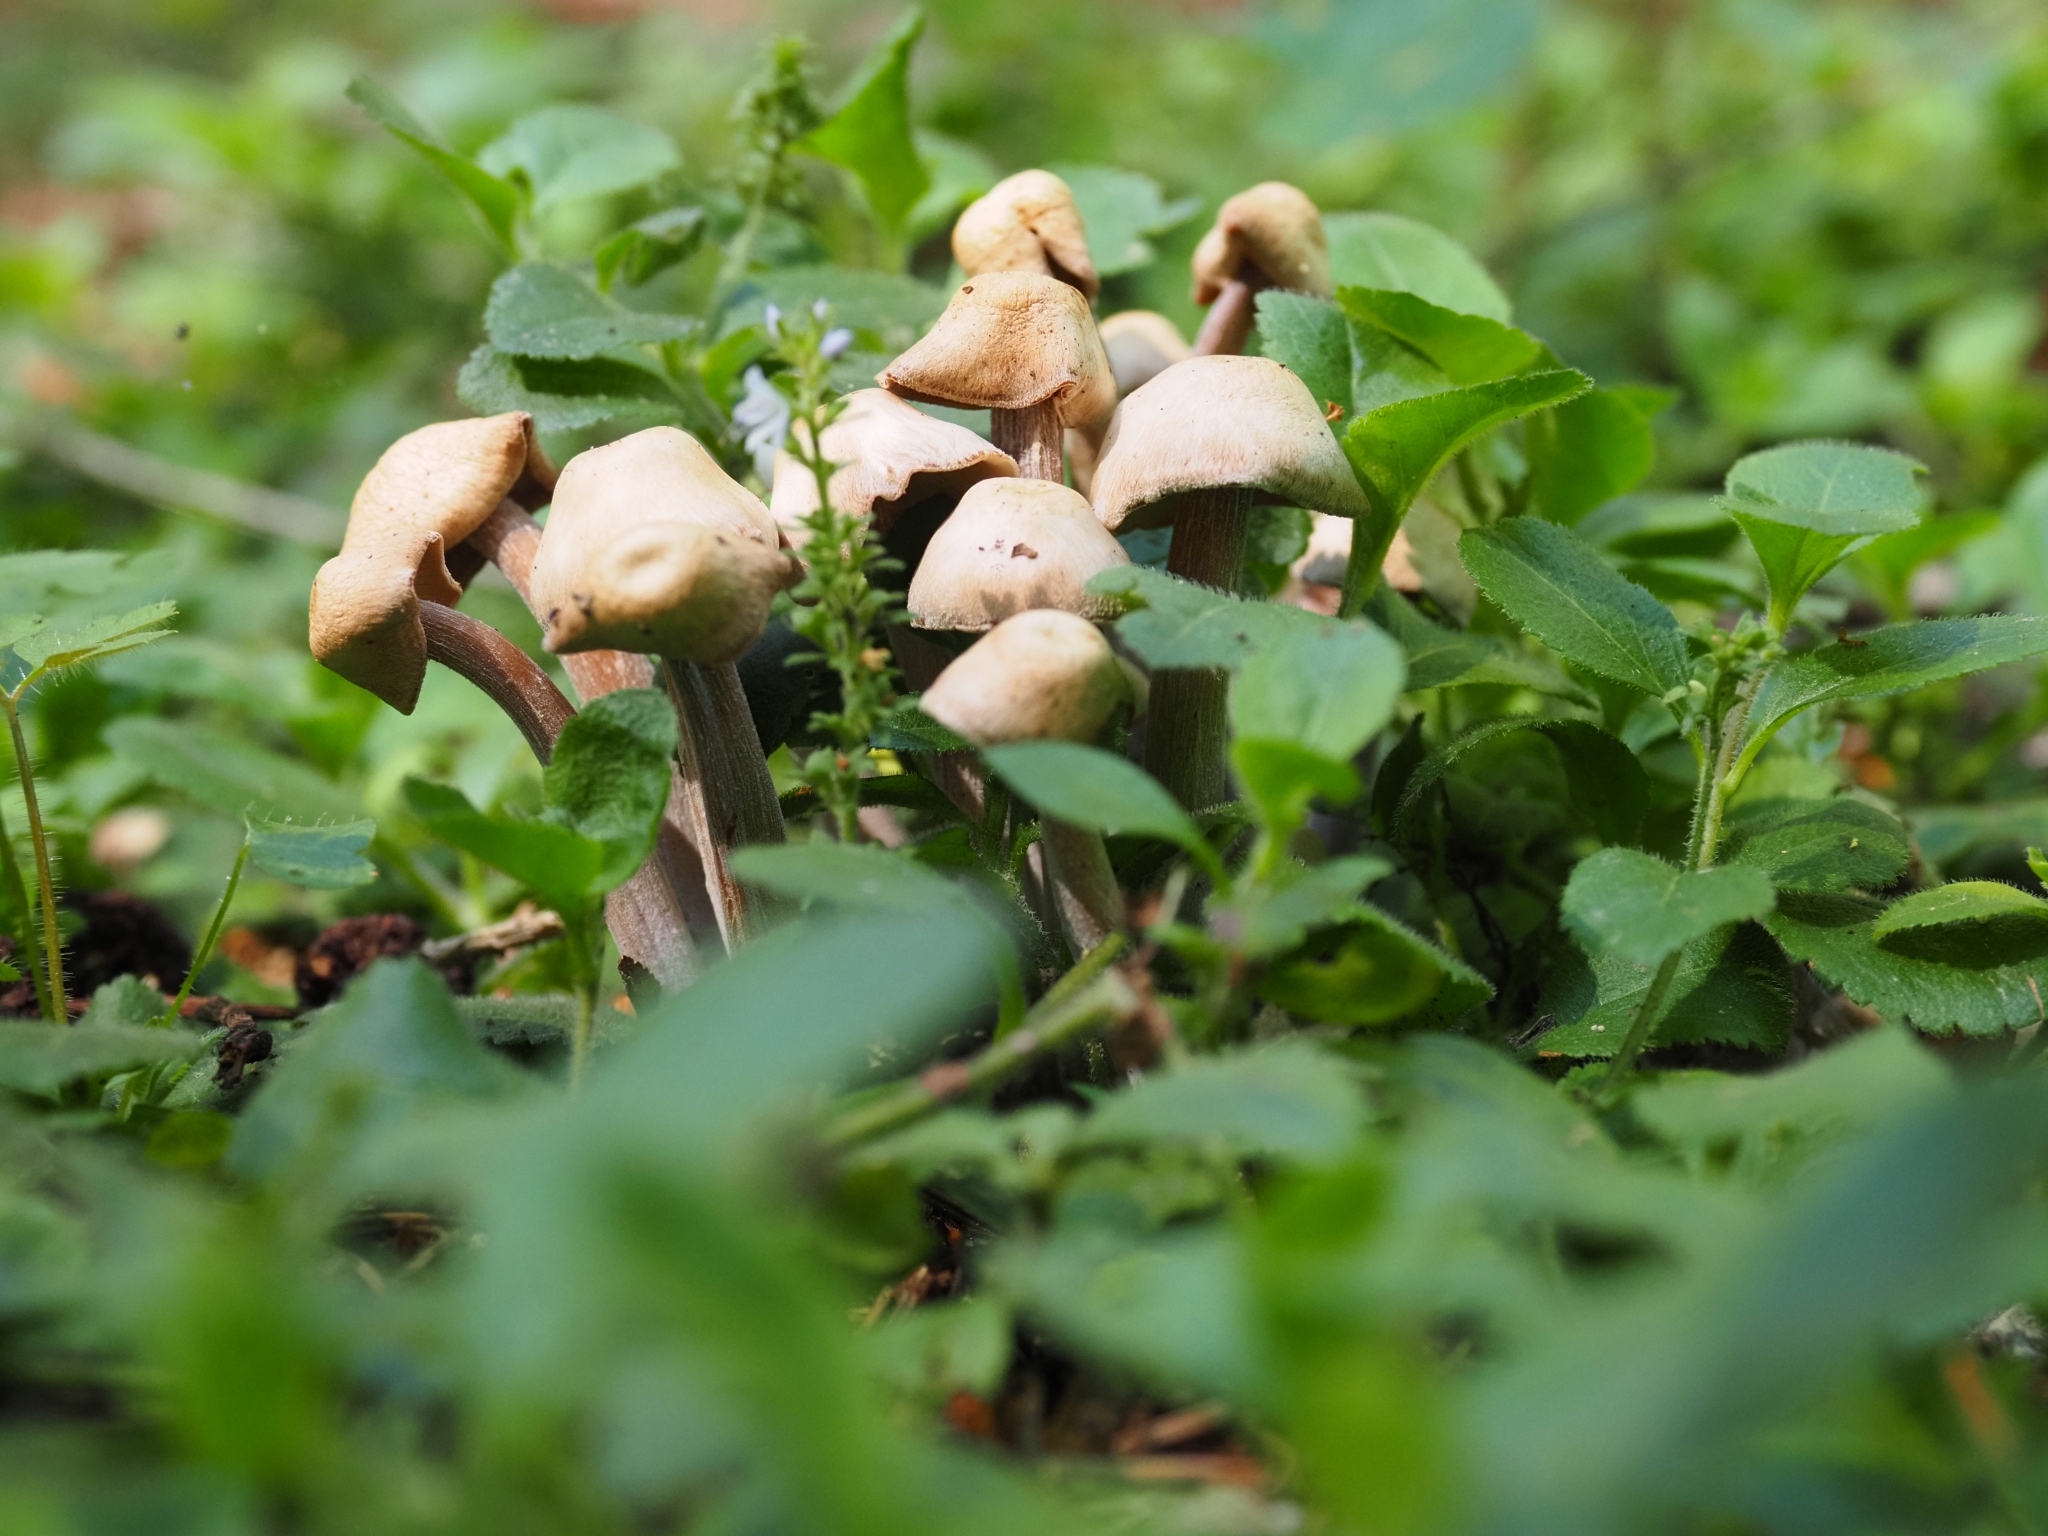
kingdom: Fungi
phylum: Basidiomycota
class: Agaricomycetes
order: Agaricales
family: Omphalotaceae
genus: Collybiopsis
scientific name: Collybiopsis confluens
